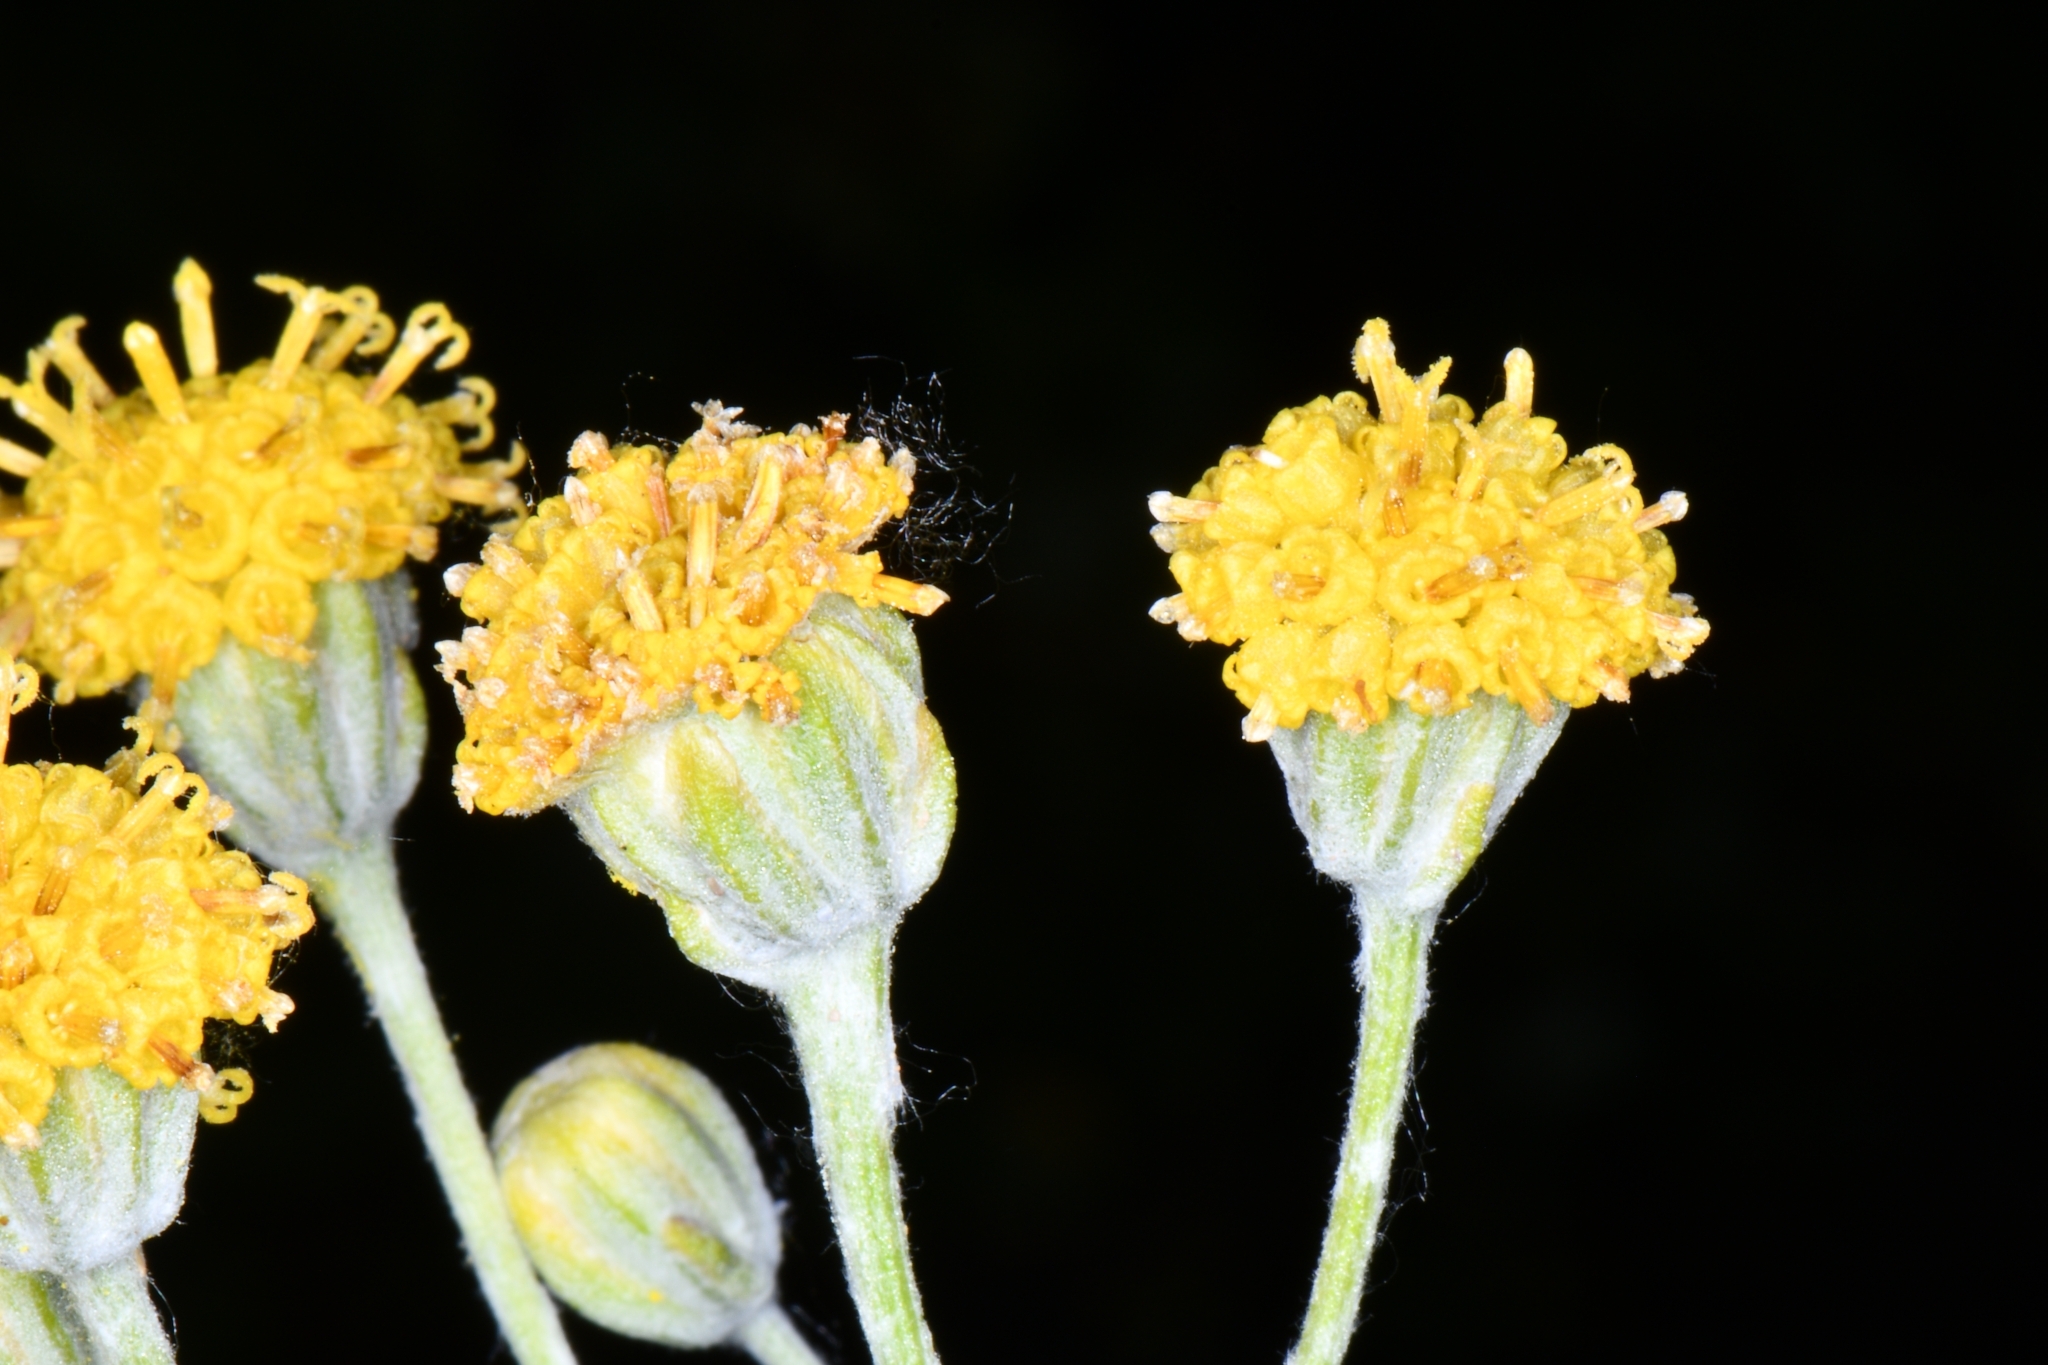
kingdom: Plantae
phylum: Tracheophyta
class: Magnoliopsida
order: Asterales
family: Asteraceae
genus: Hymenopappus
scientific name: Hymenopappus filifolius
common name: Columbia cutleaf
